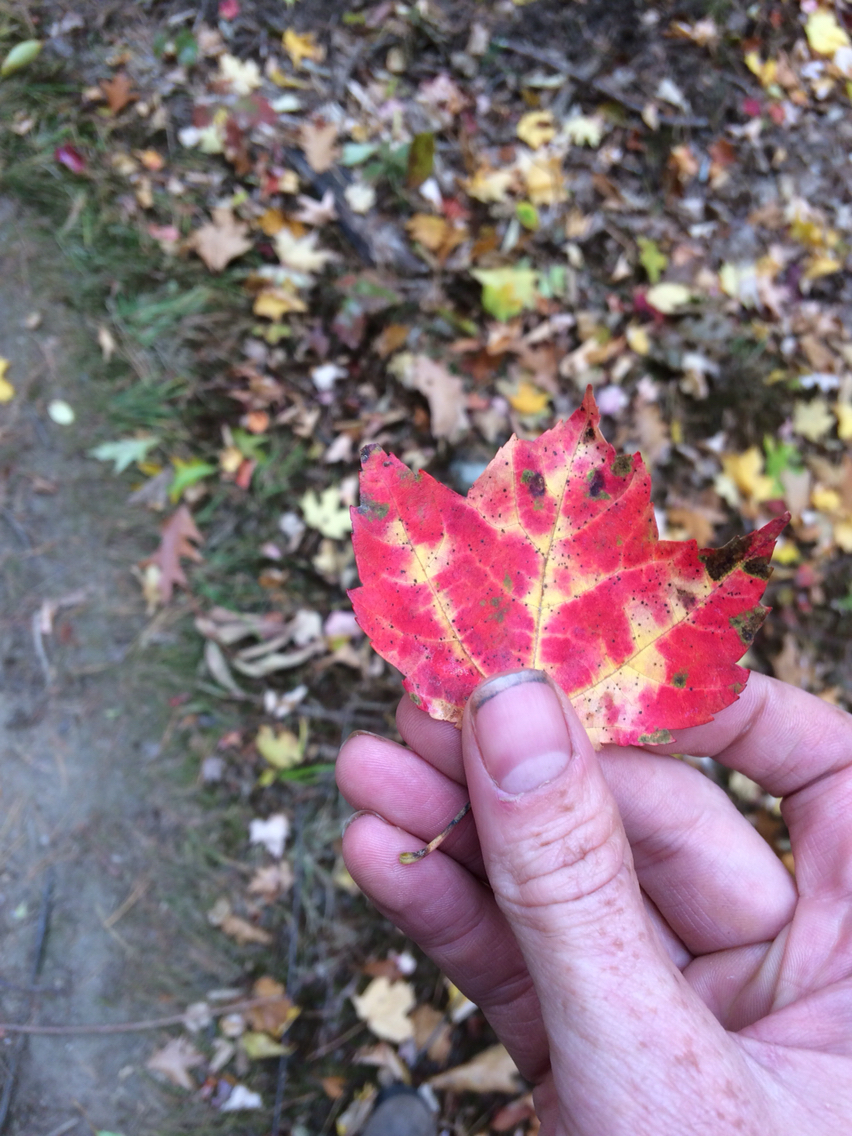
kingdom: Plantae
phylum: Tracheophyta
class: Magnoliopsida
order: Sapindales
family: Sapindaceae
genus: Acer
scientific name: Acer rubrum
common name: Red maple
